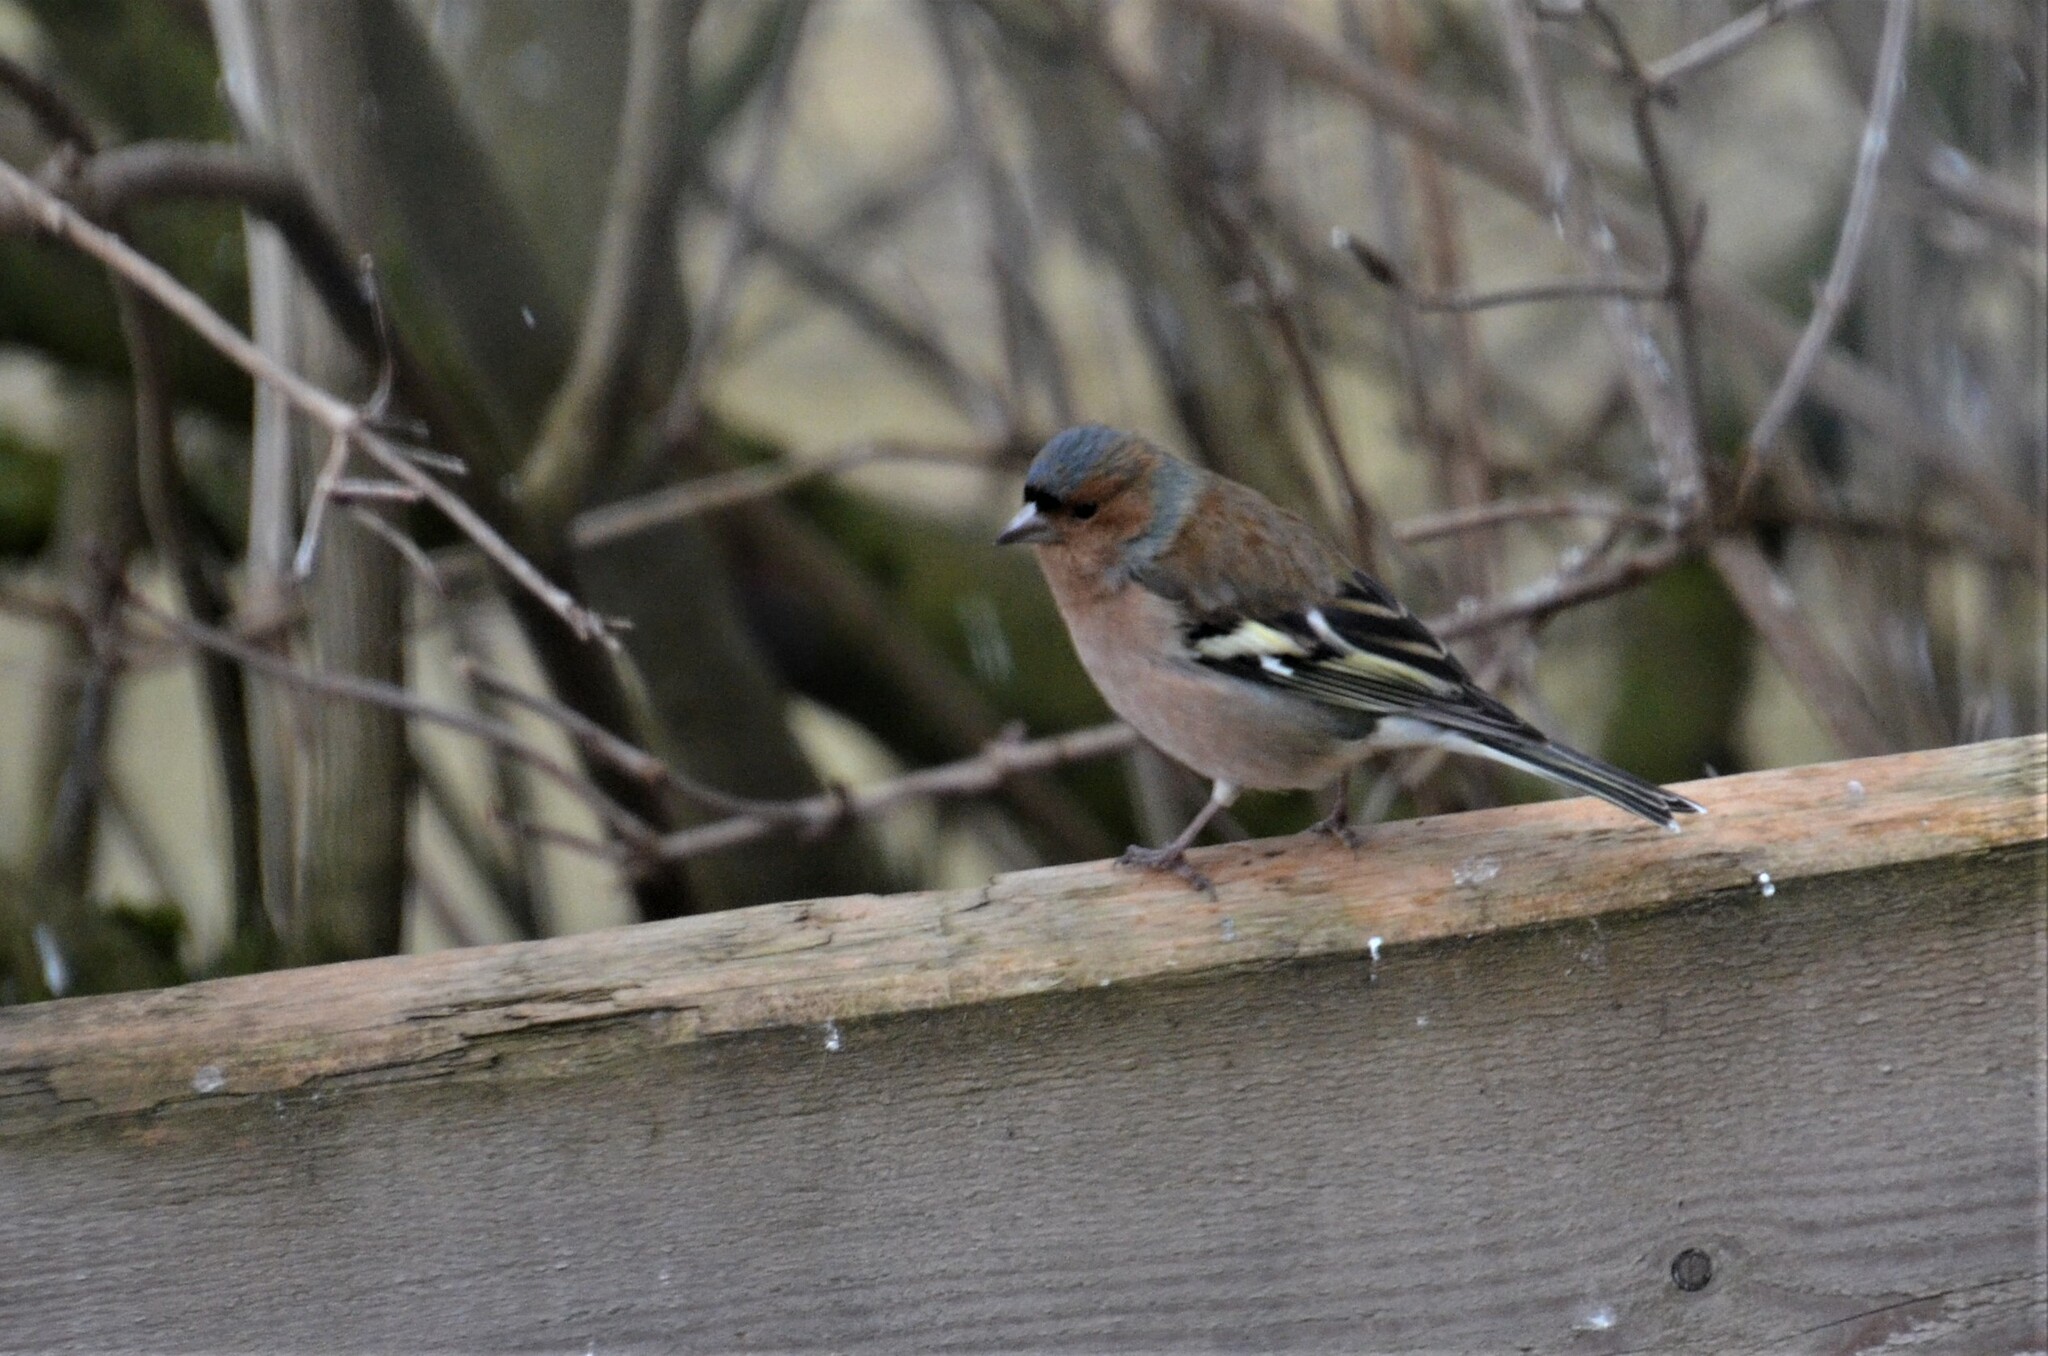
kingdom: Animalia
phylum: Chordata
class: Aves
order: Passeriformes
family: Fringillidae
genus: Fringilla
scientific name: Fringilla coelebs
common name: Common chaffinch
